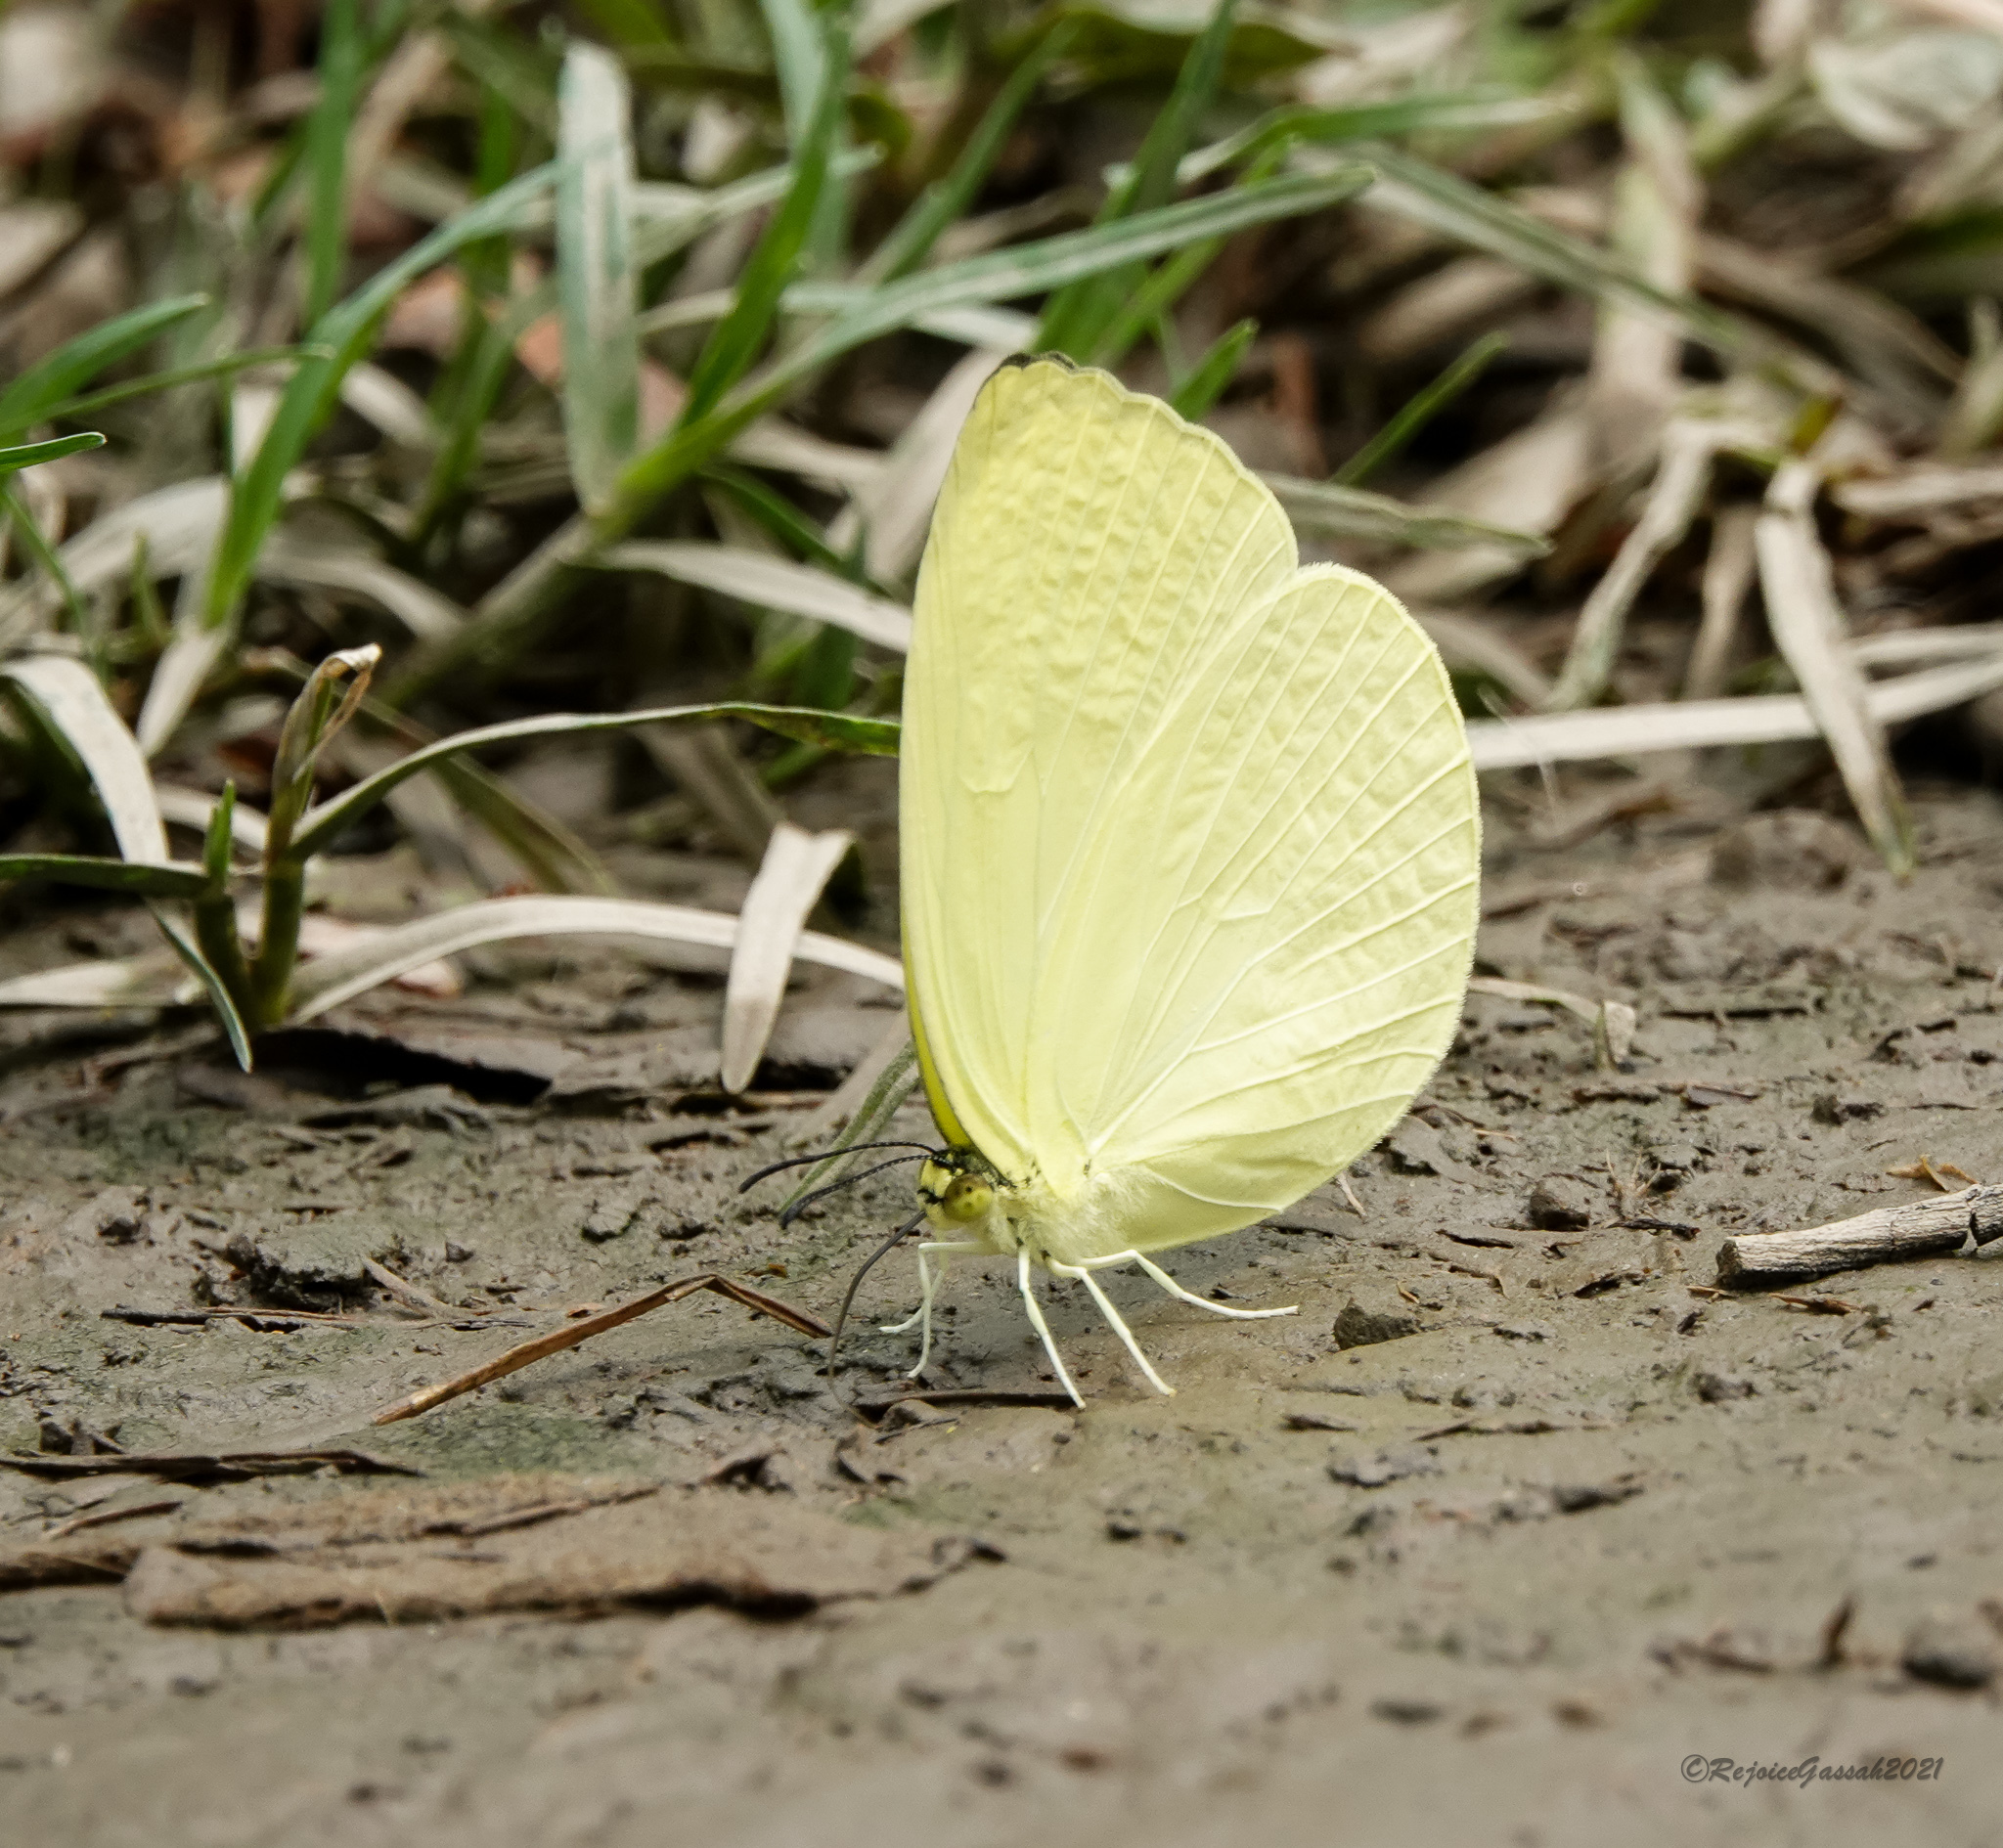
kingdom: Animalia
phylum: Arthropoda
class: Insecta
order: Lepidoptera
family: Pieridae
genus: Gandaca
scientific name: Gandaca harina
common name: Tree yellow
